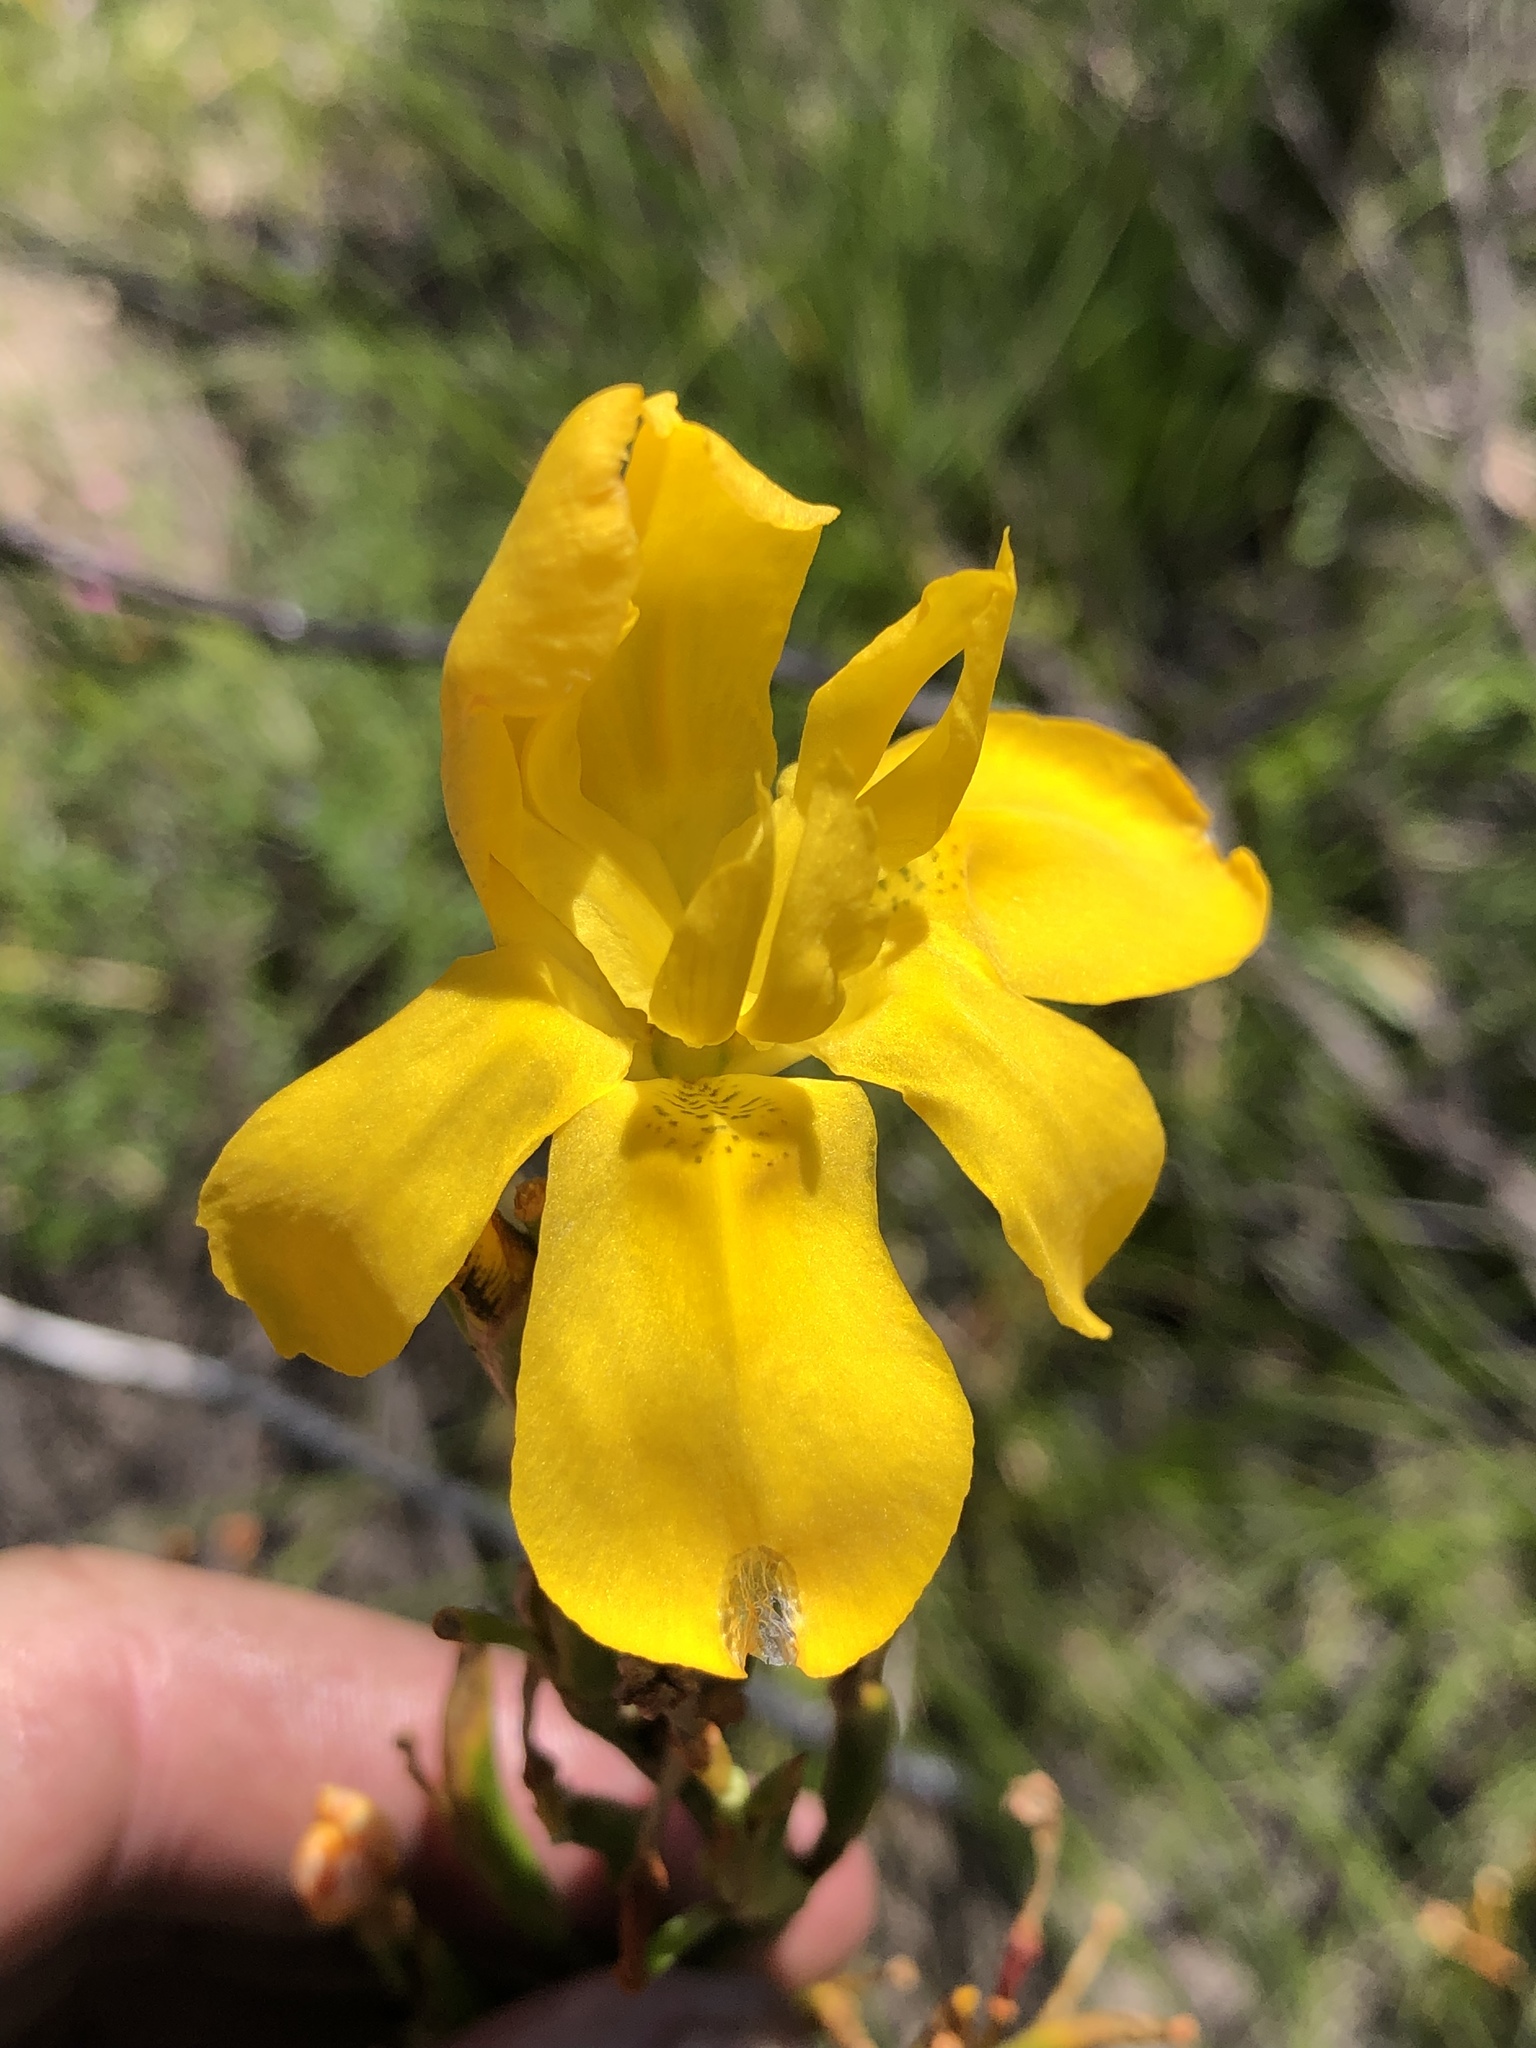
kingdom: Plantae
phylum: Tracheophyta
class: Liliopsida
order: Asparagales
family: Iridaceae
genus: Moraea
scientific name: Moraea ramosissima
